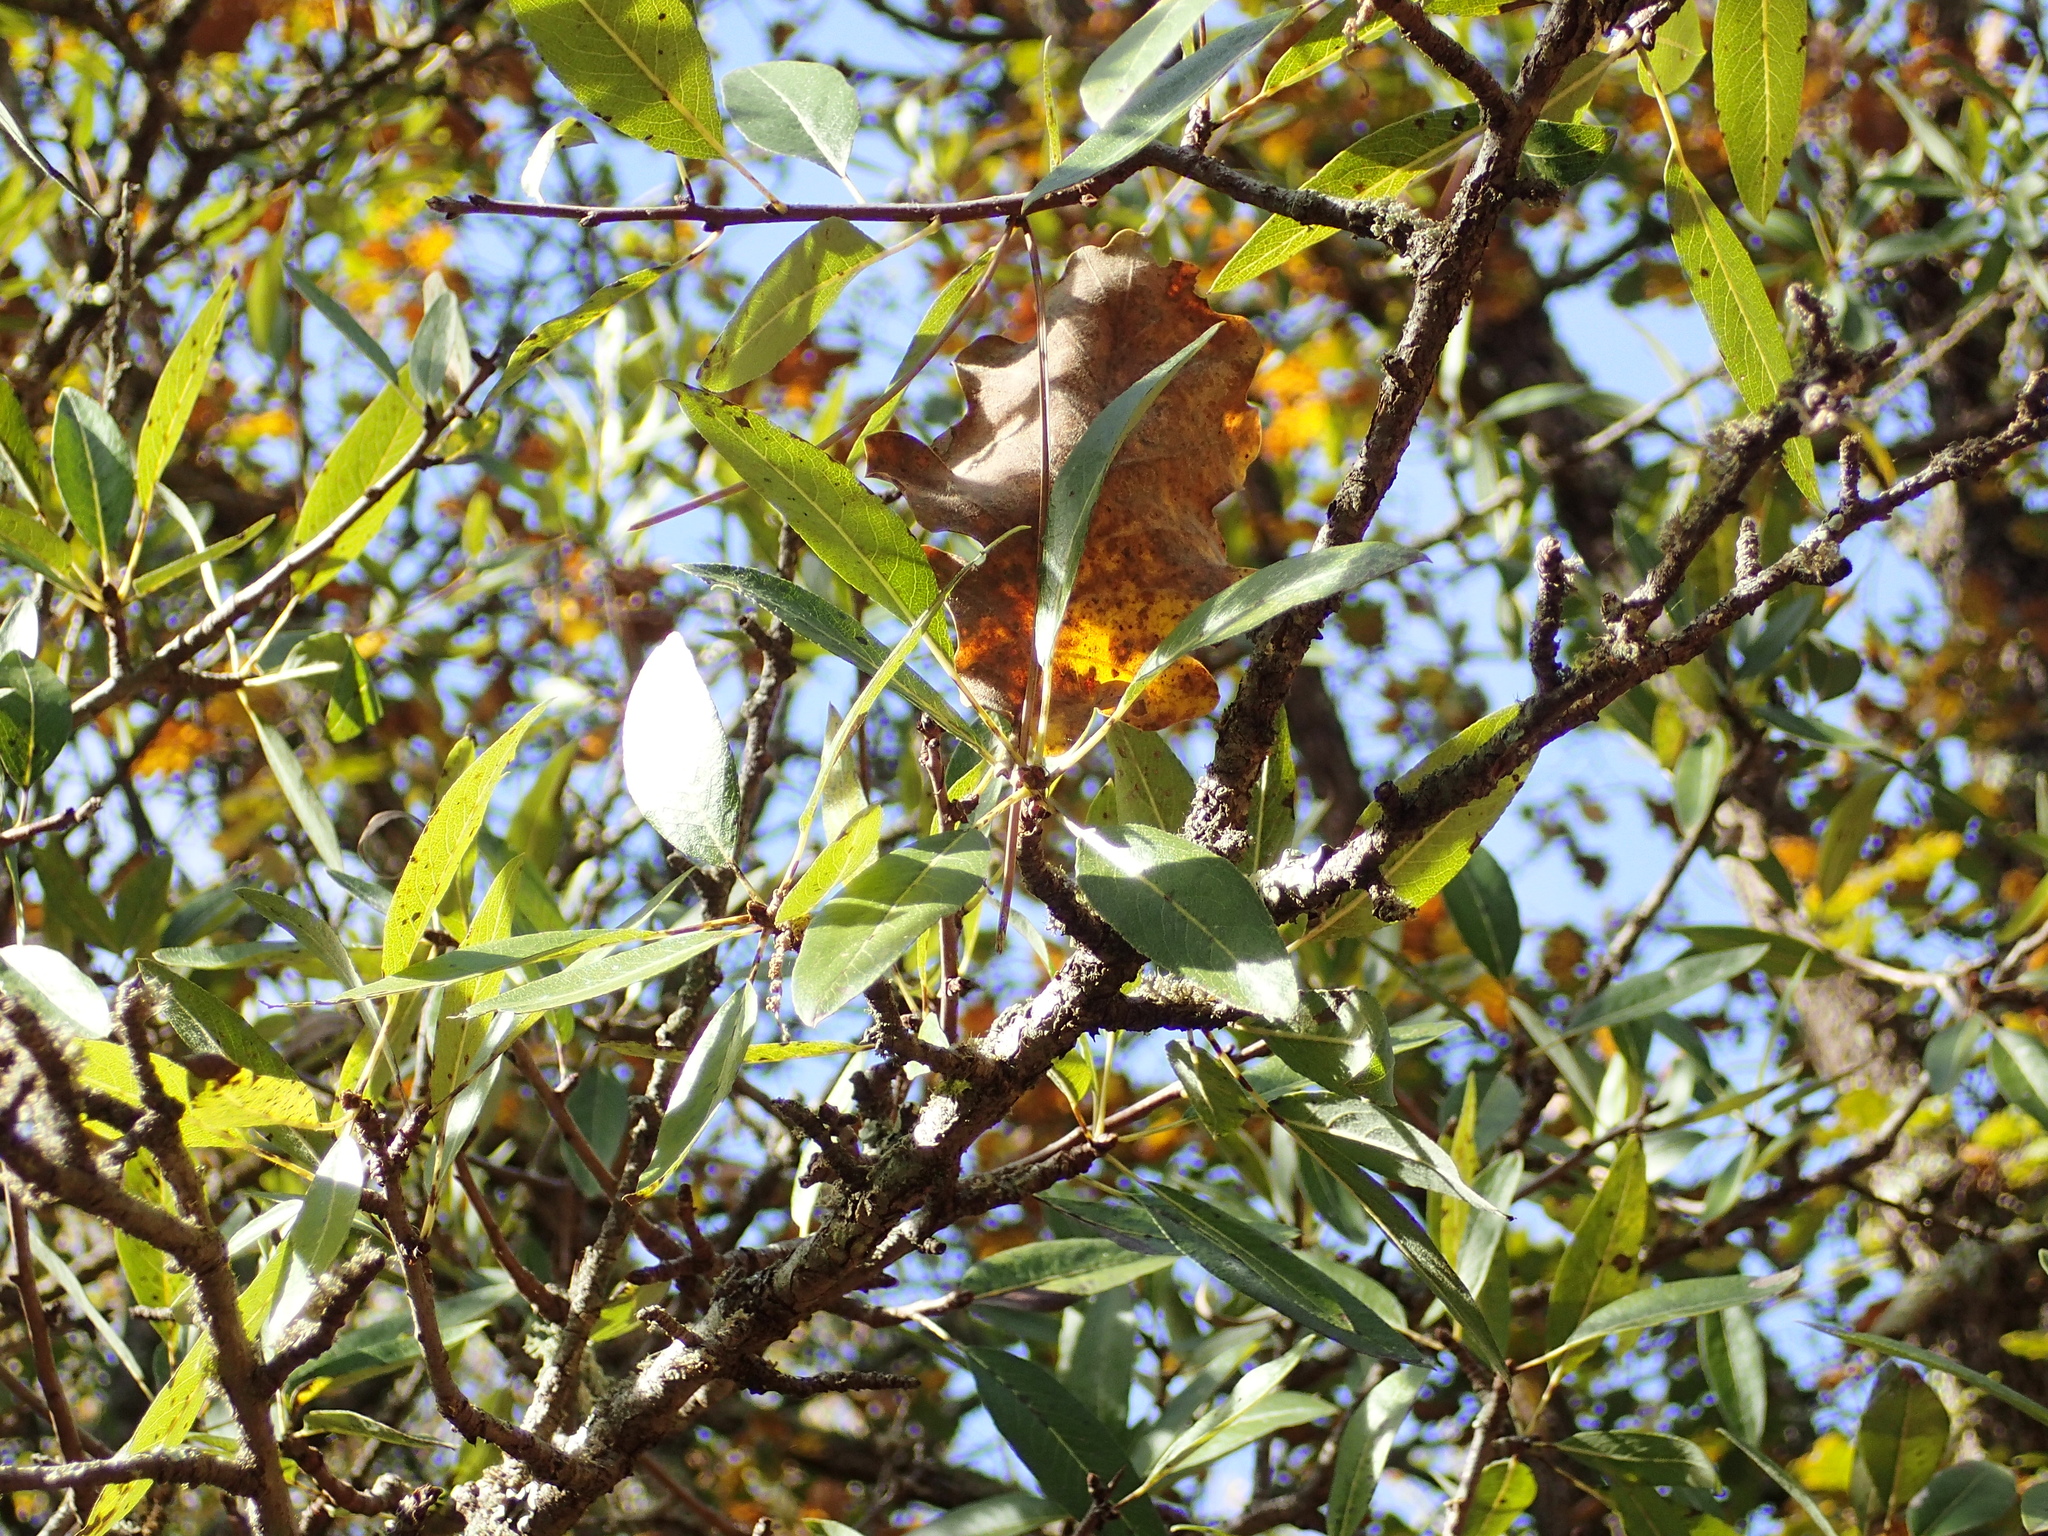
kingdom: Plantae
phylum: Tracheophyta
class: Magnoliopsida
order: Rosales
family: Rosaceae
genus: Pyrus
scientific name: Pyrus spinosa
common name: Almond-leaf pear
